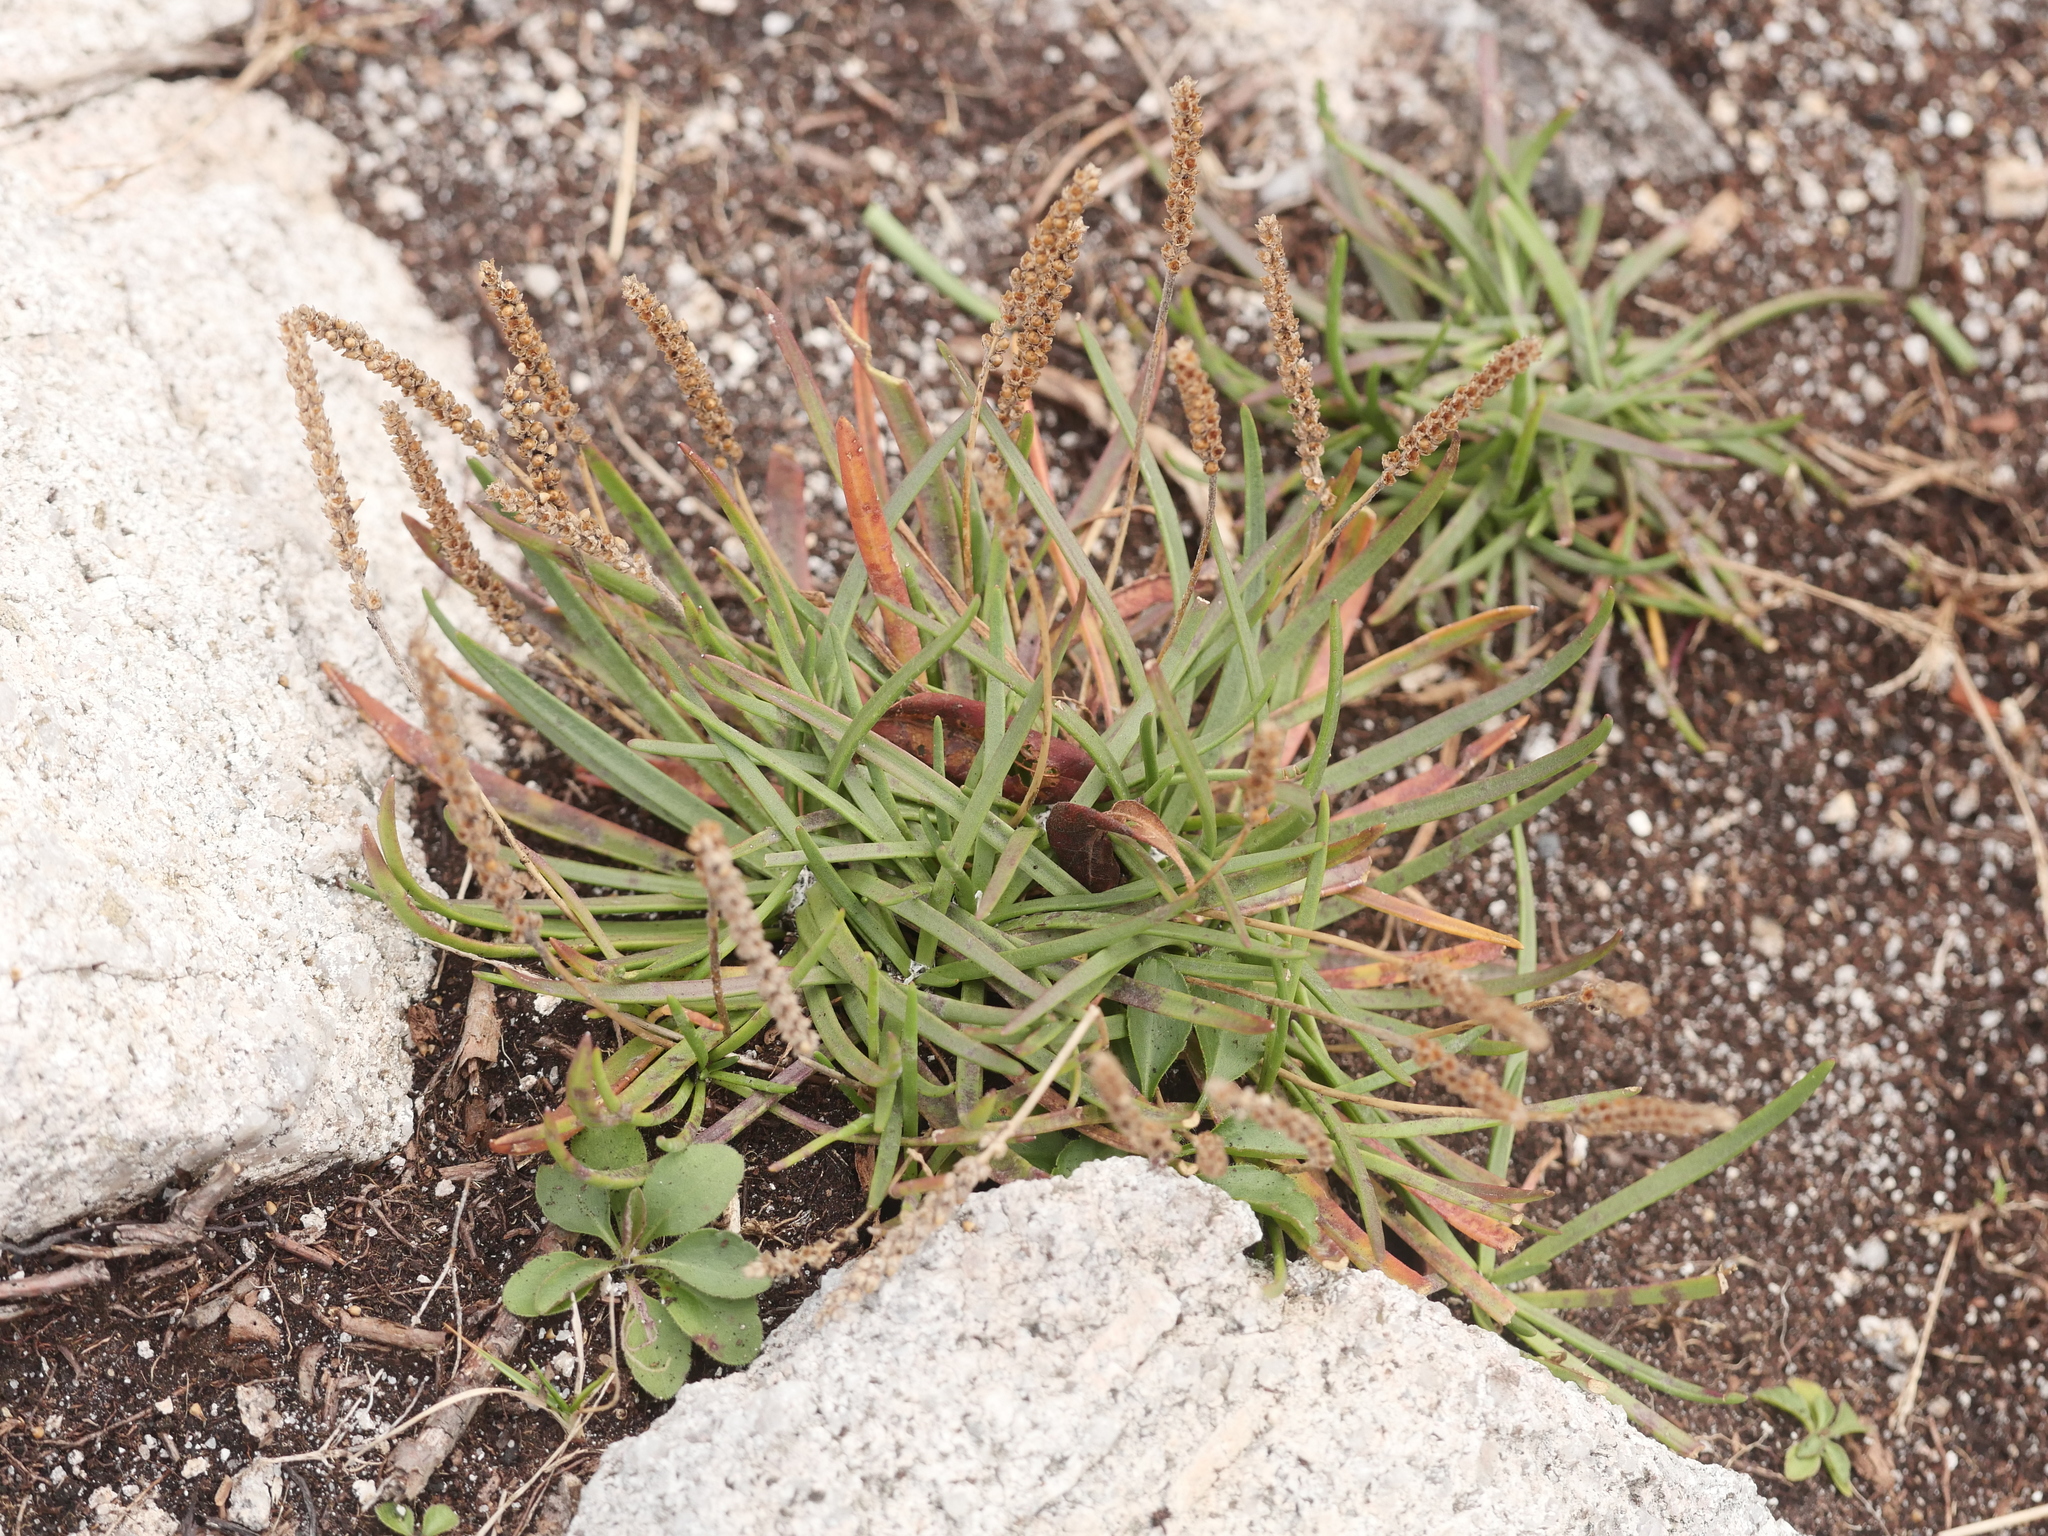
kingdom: Plantae
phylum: Tracheophyta
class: Magnoliopsida
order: Lamiales
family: Plantaginaceae
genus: Plantago
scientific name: Plantago maritima
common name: Sea plantain
